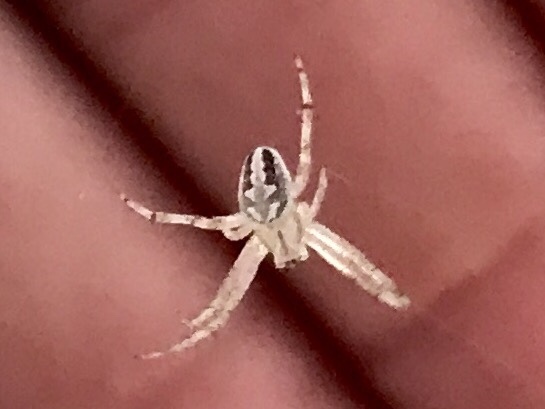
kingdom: Animalia
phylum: Arthropoda
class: Arachnida
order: Araneae
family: Araneidae
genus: Neoscona
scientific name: Neoscona oaxacensis
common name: Orb weavers
